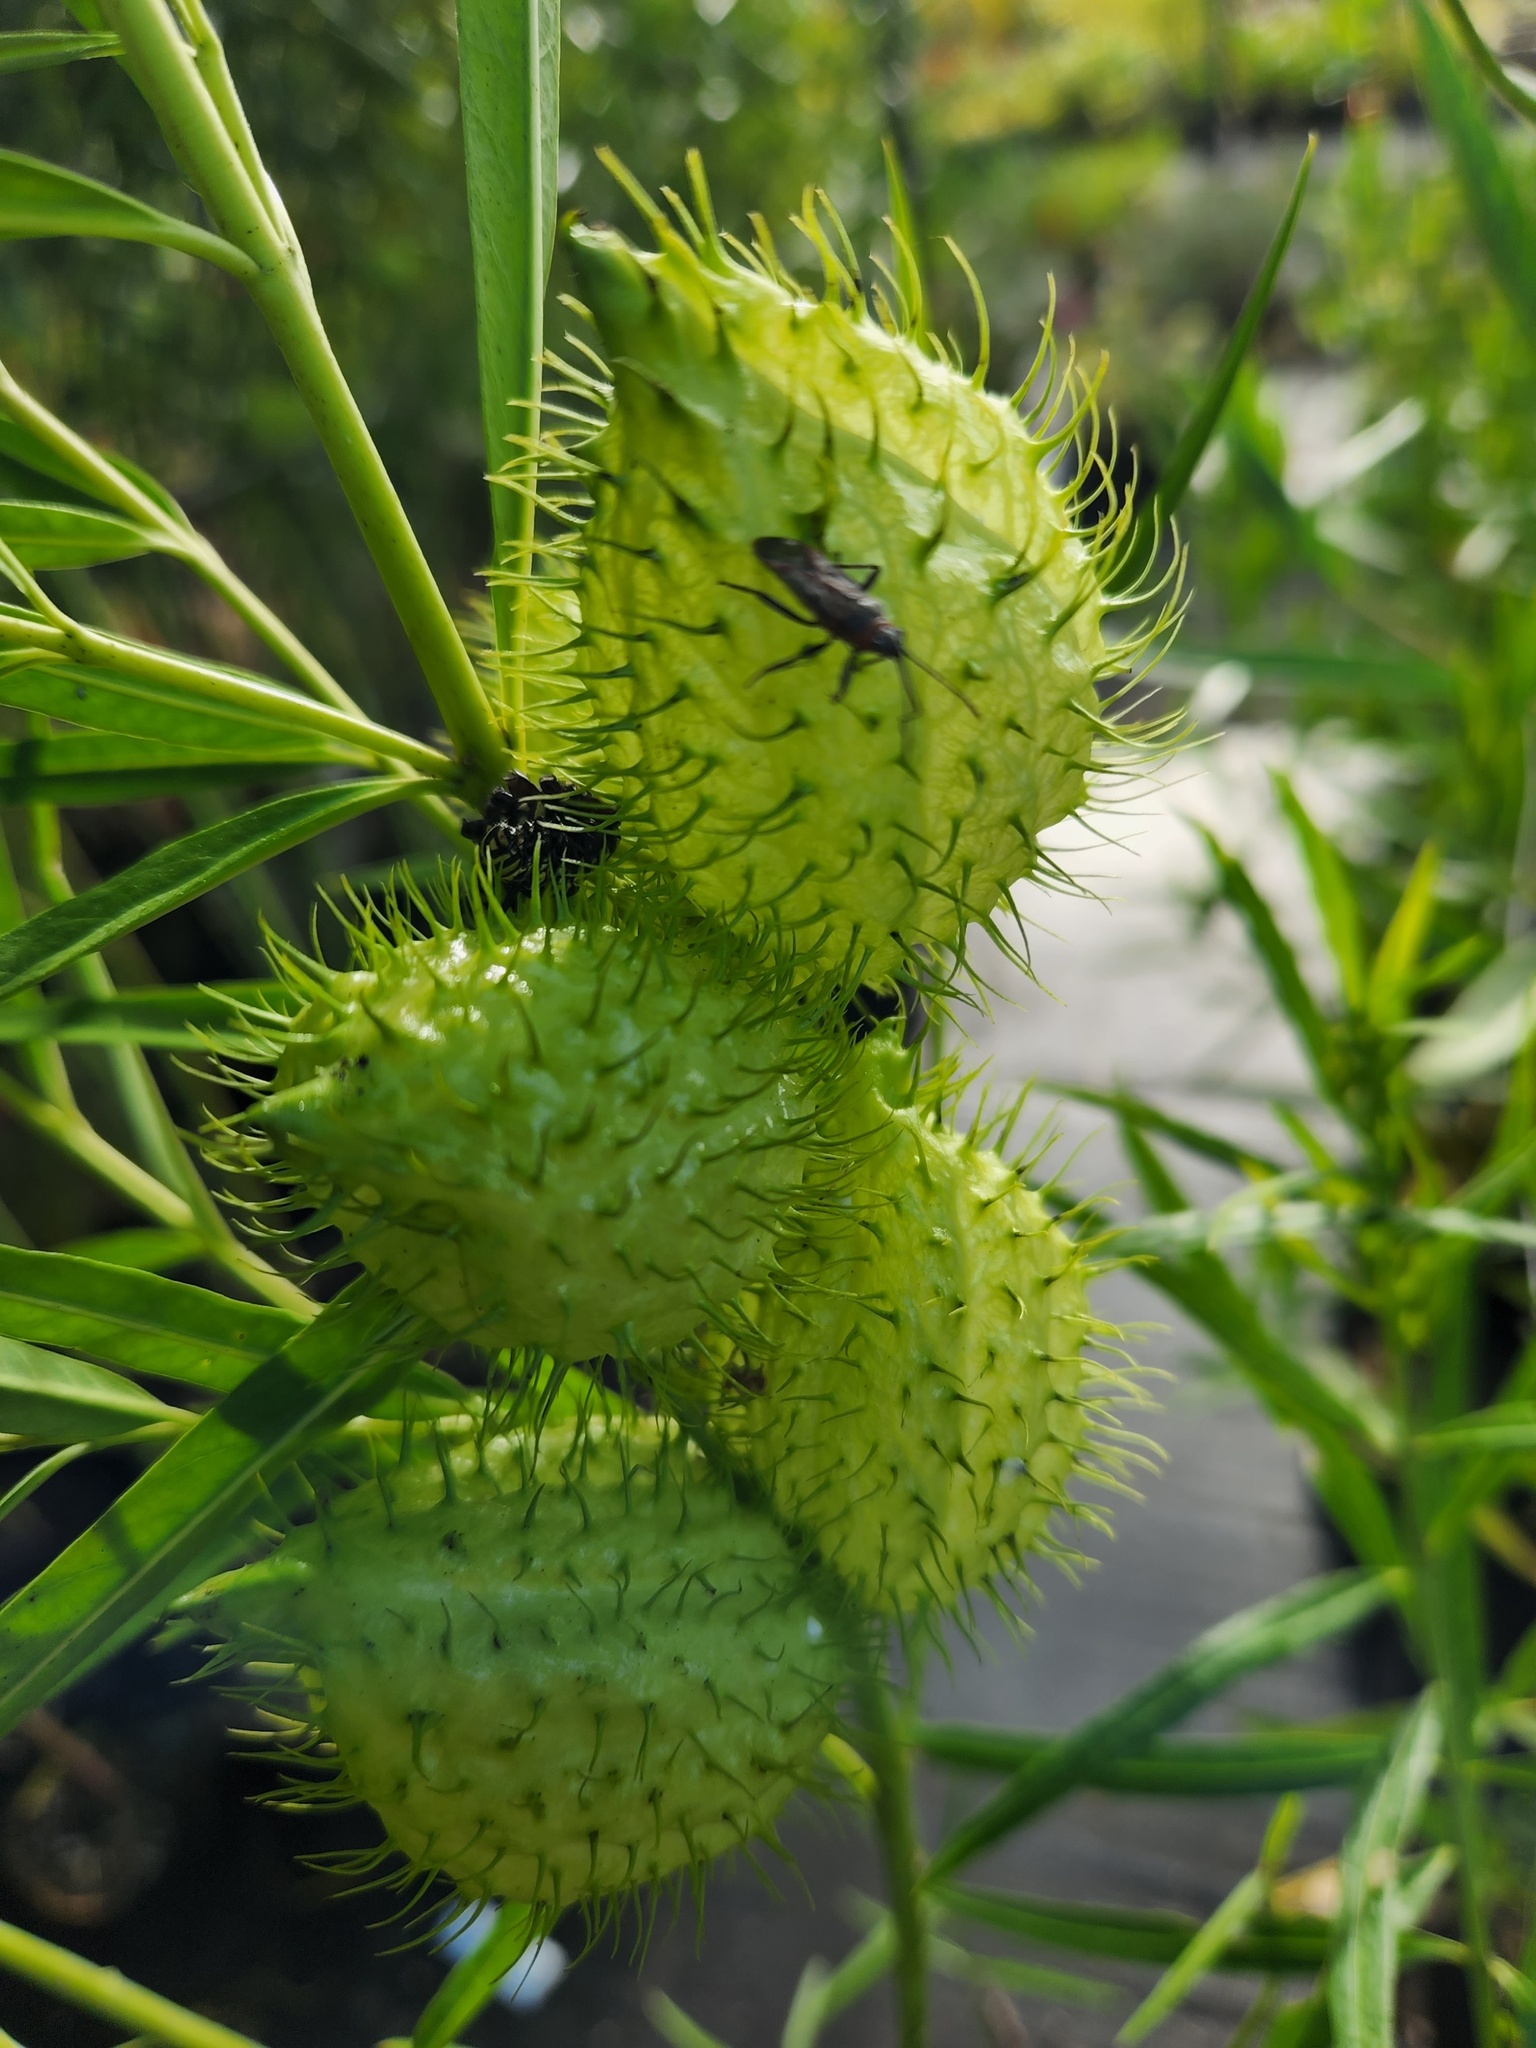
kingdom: Animalia
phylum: Arthropoda
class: Insecta
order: Hemiptera
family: Lygaeidae
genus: Arocatus
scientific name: Arocatus rusticus
